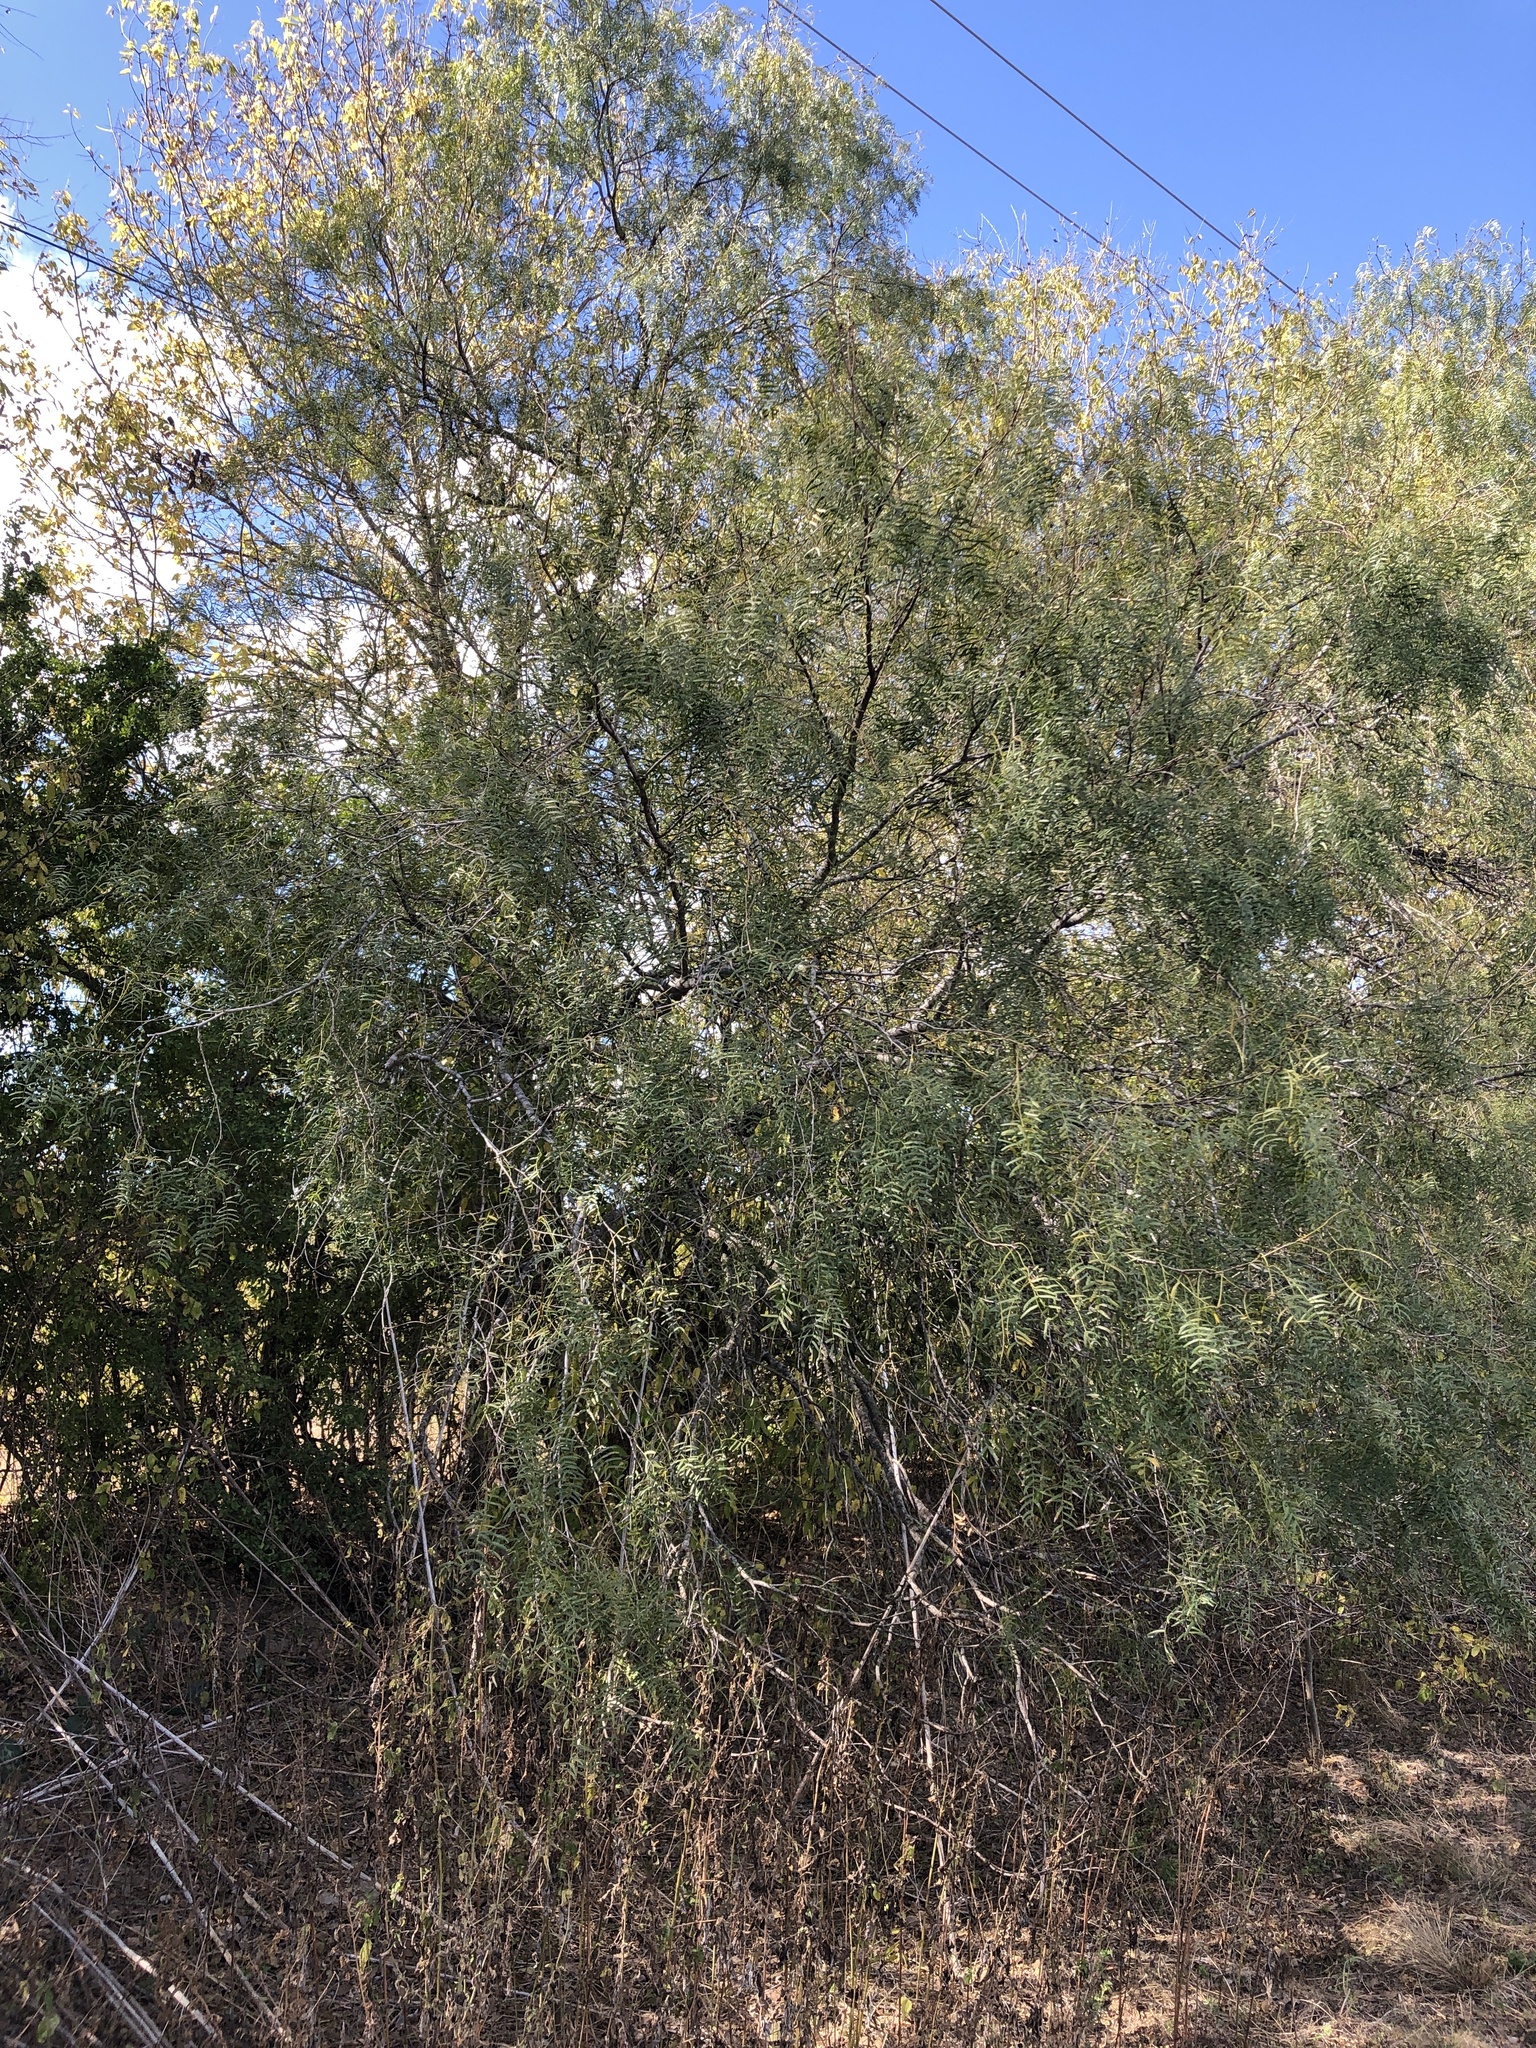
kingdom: Plantae
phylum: Tracheophyta
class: Magnoliopsida
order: Fabales
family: Fabaceae
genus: Prosopis
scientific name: Prosopis glandulosa
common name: Honey mesquite
